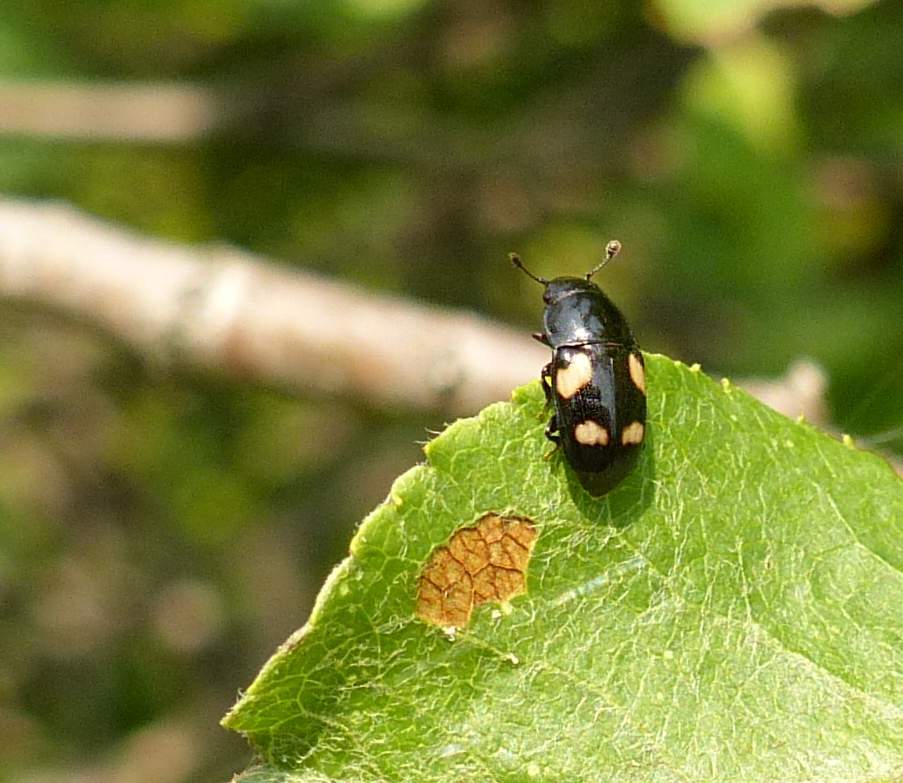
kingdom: Animalia
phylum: Arthropoda
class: Insecta
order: Coleoptera
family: Nitidulidae
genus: Glischrochilus
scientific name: Glischrochilus quadrisignatus
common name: Picnic beetle
